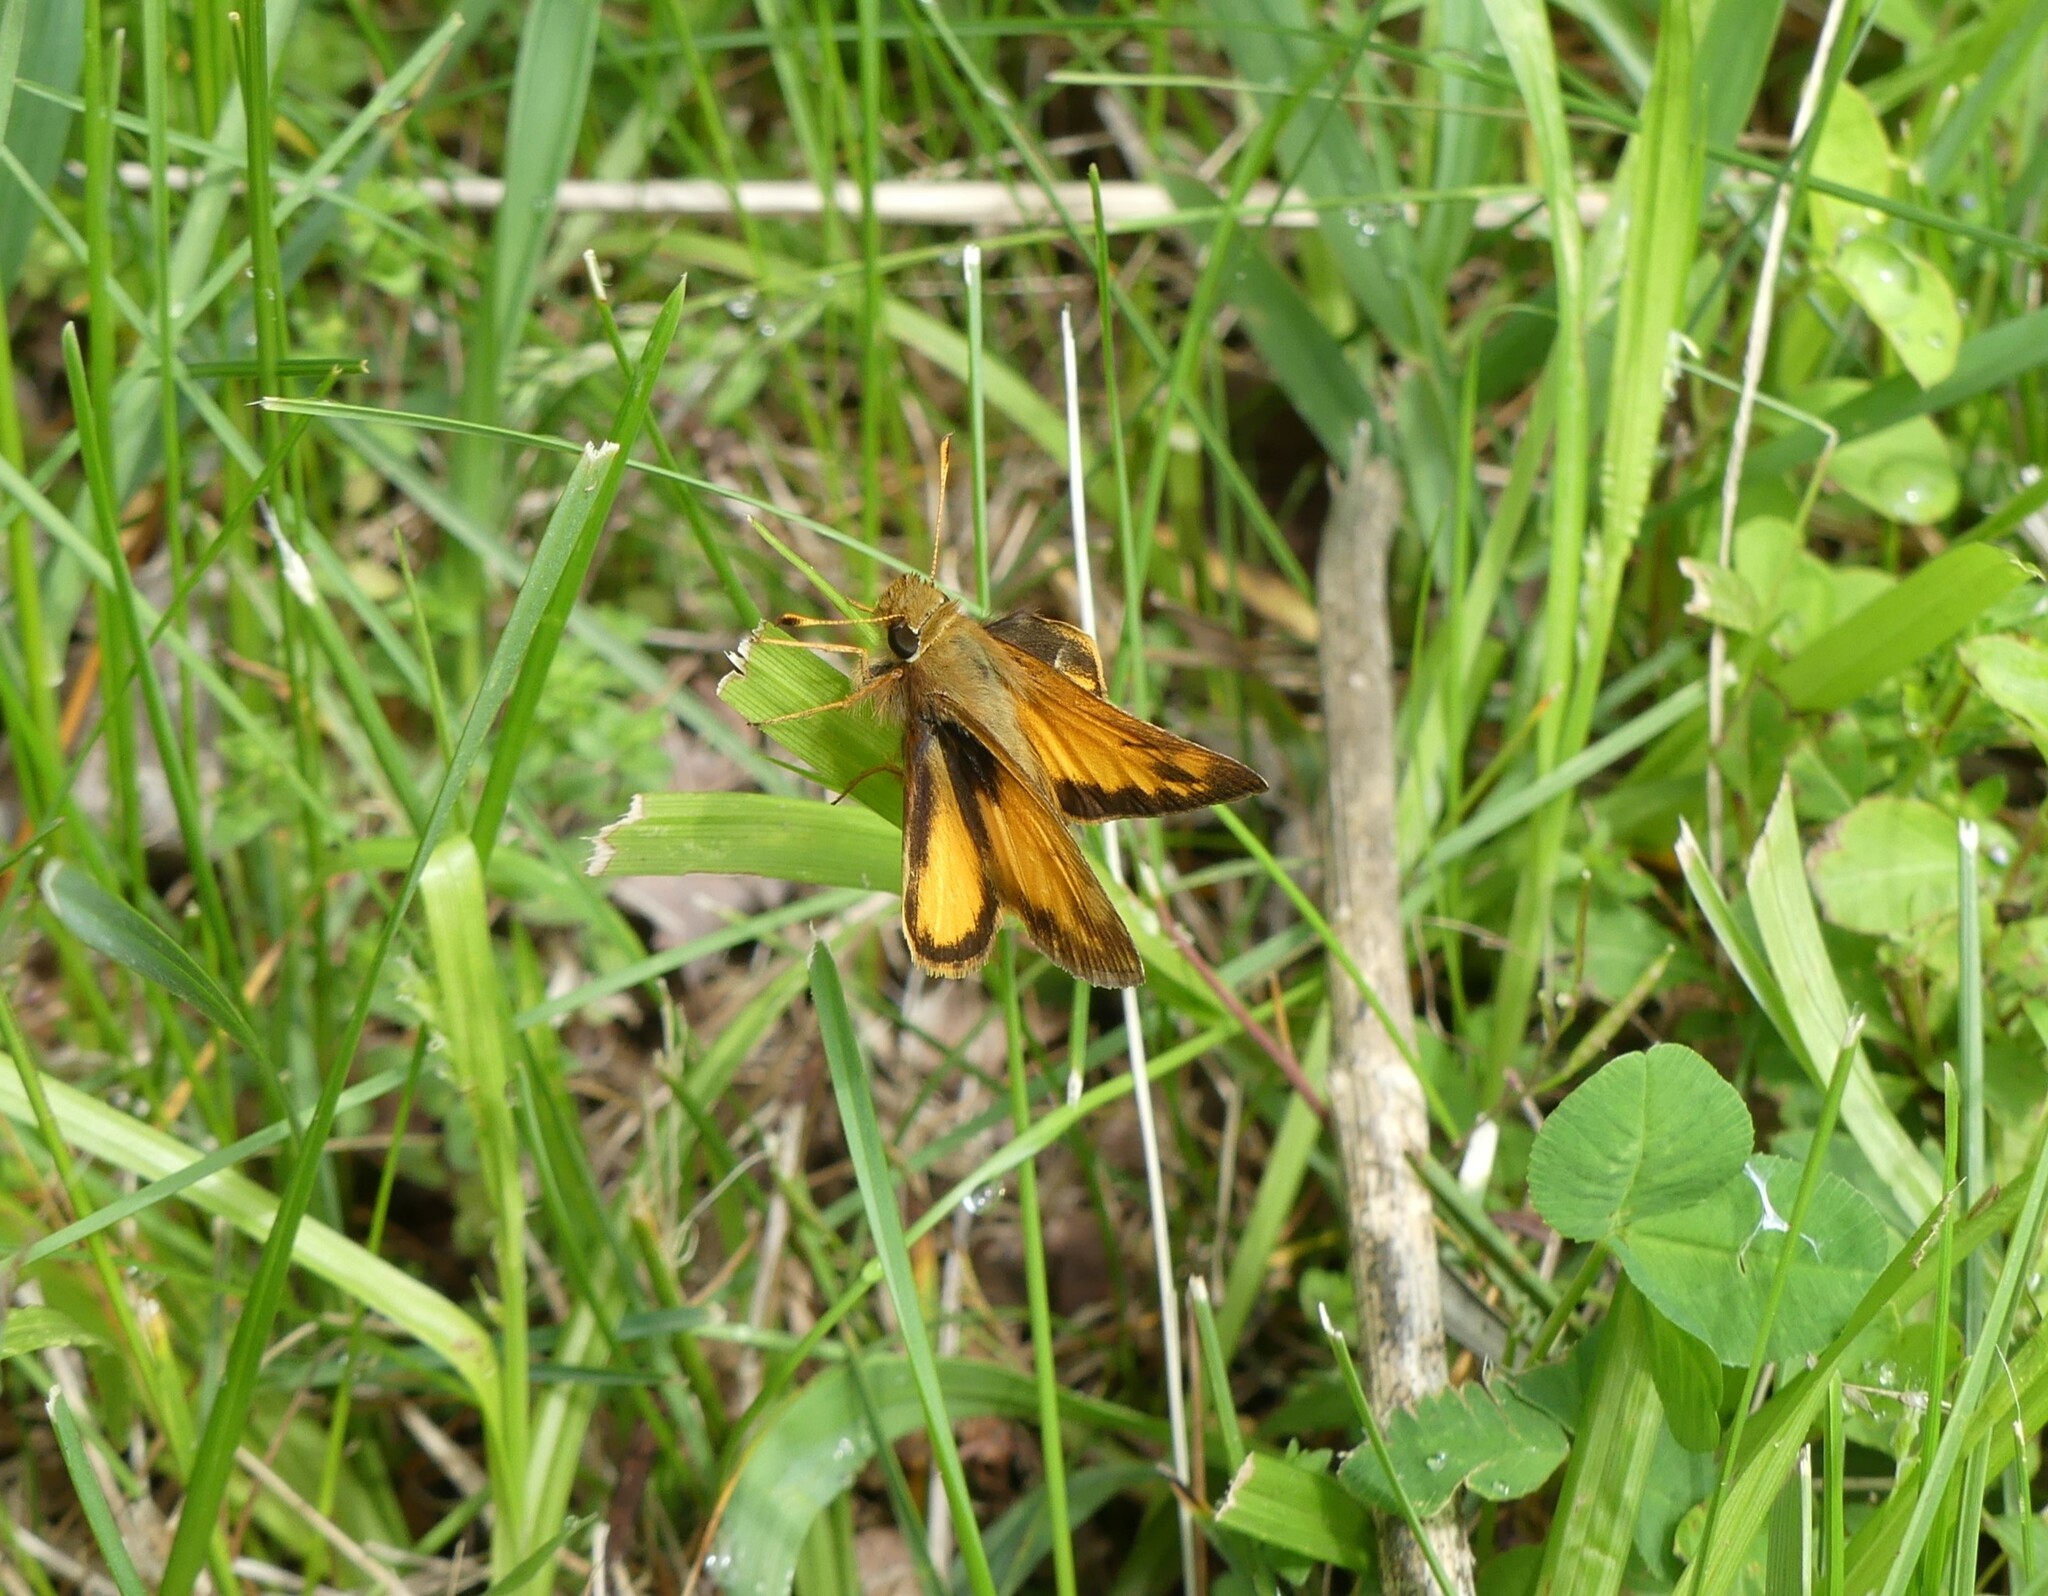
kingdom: Animalia
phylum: Arthropoda
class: Insecta
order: Lepidoptera
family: Hesperiidae
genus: Lon
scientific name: Lon zabulon
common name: Zabulon skipper
